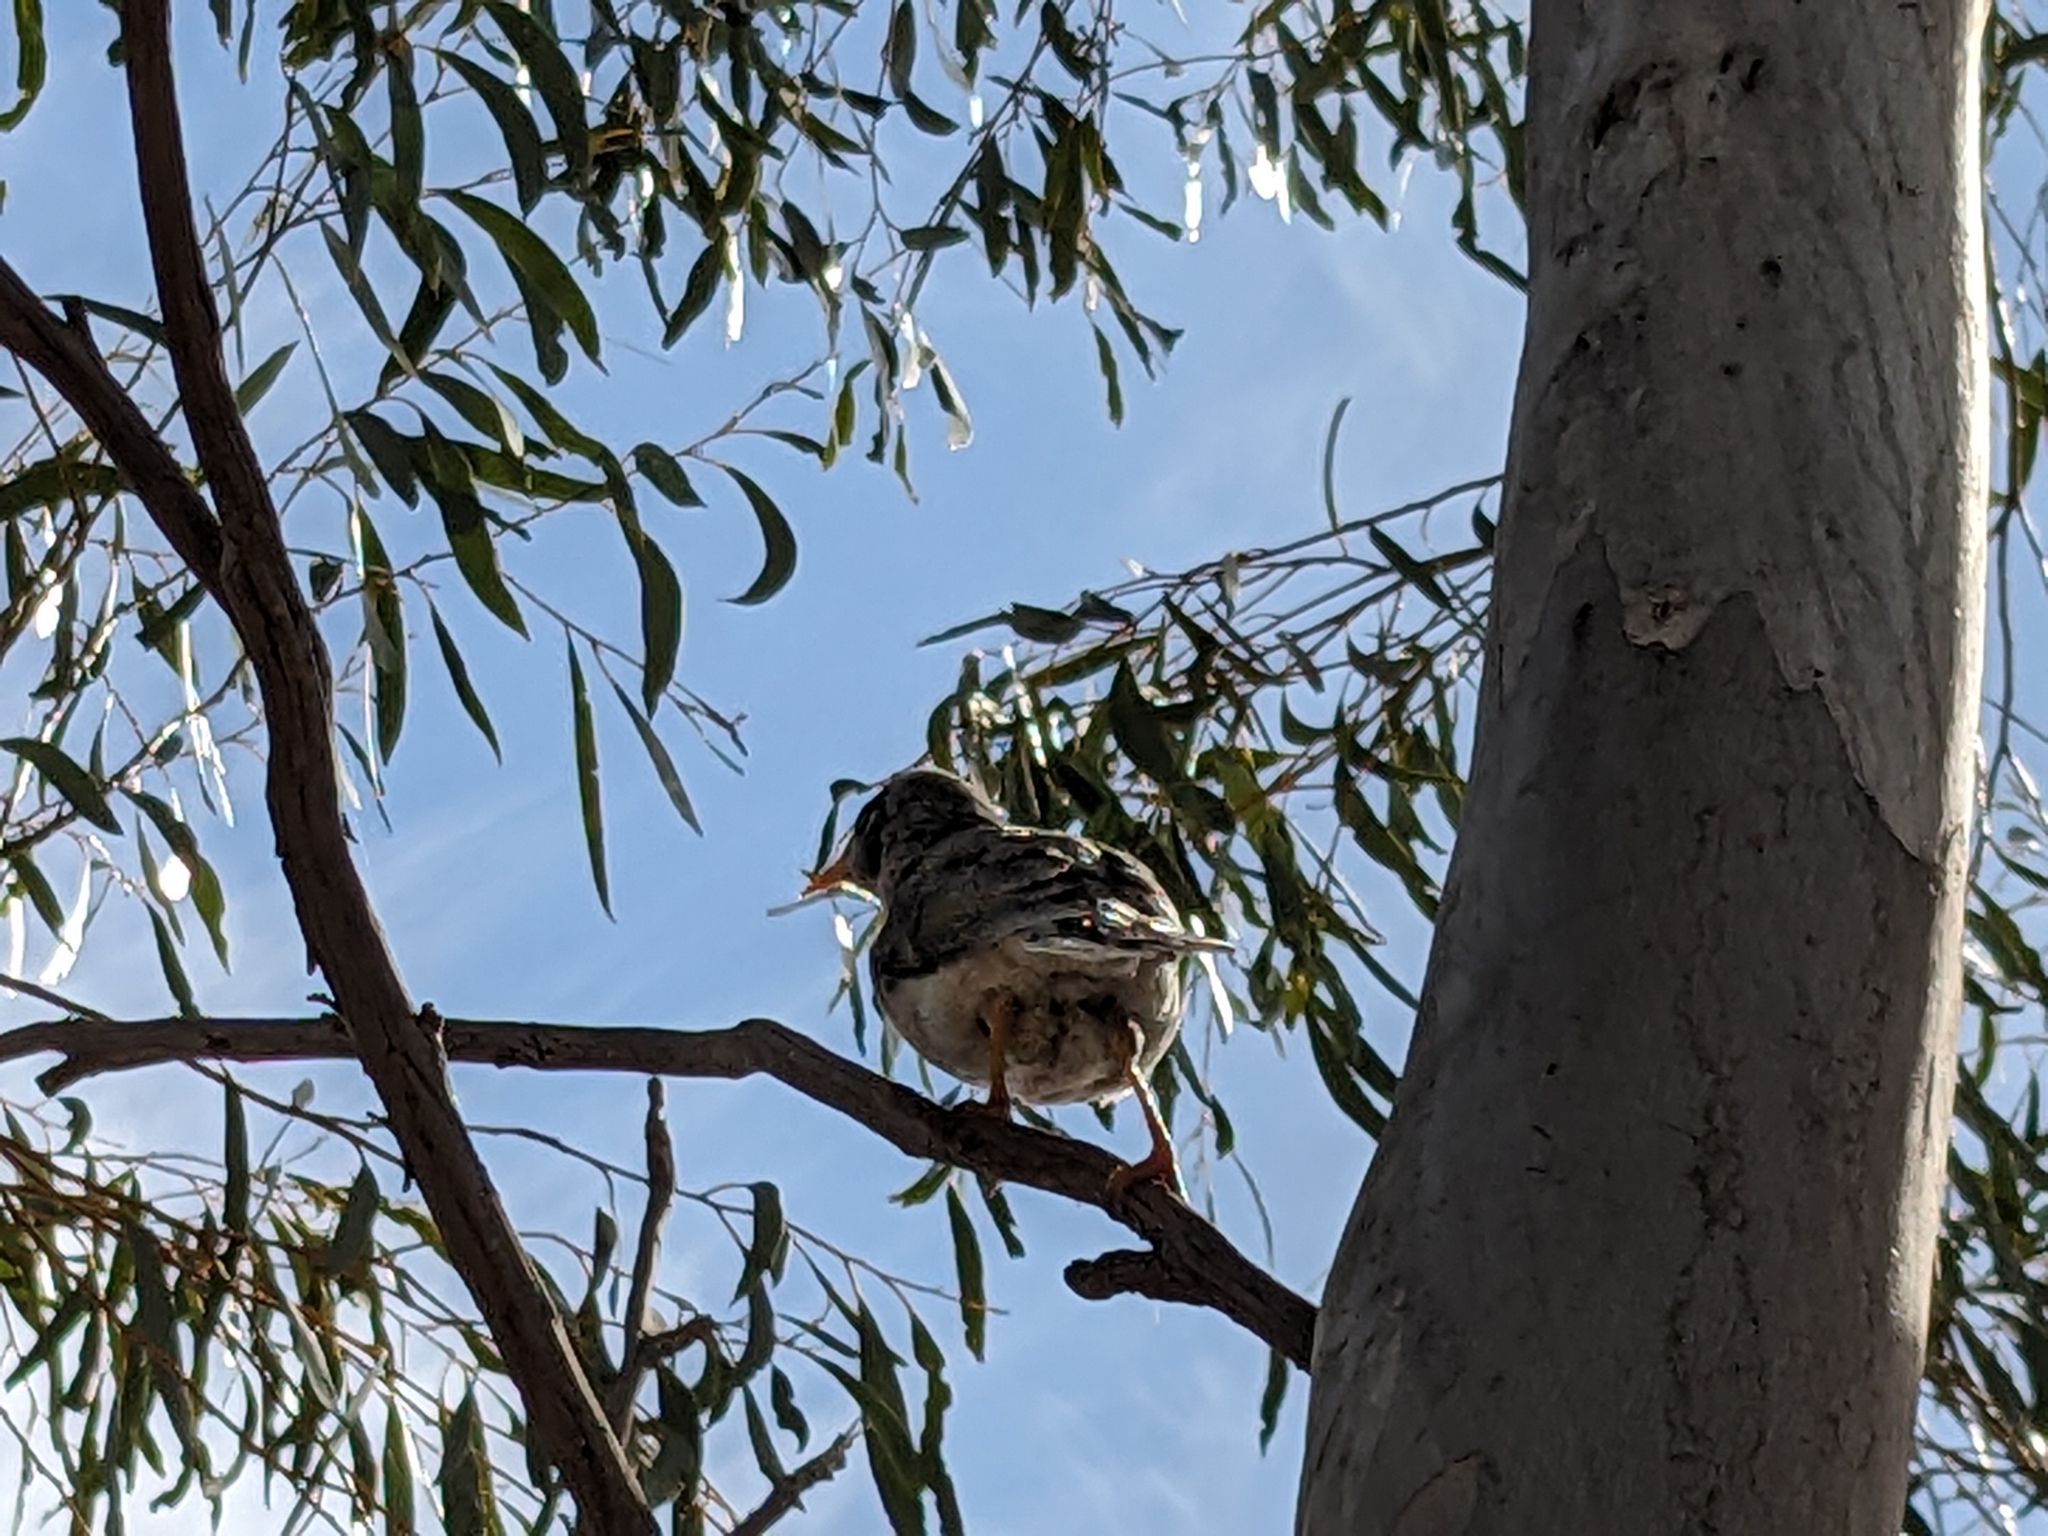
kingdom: Animalia
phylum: Chordata
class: Aves
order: Passeriformes
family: Meliphagidae
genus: Manorina
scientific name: Manorina melanocephala
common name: Noisy miner
